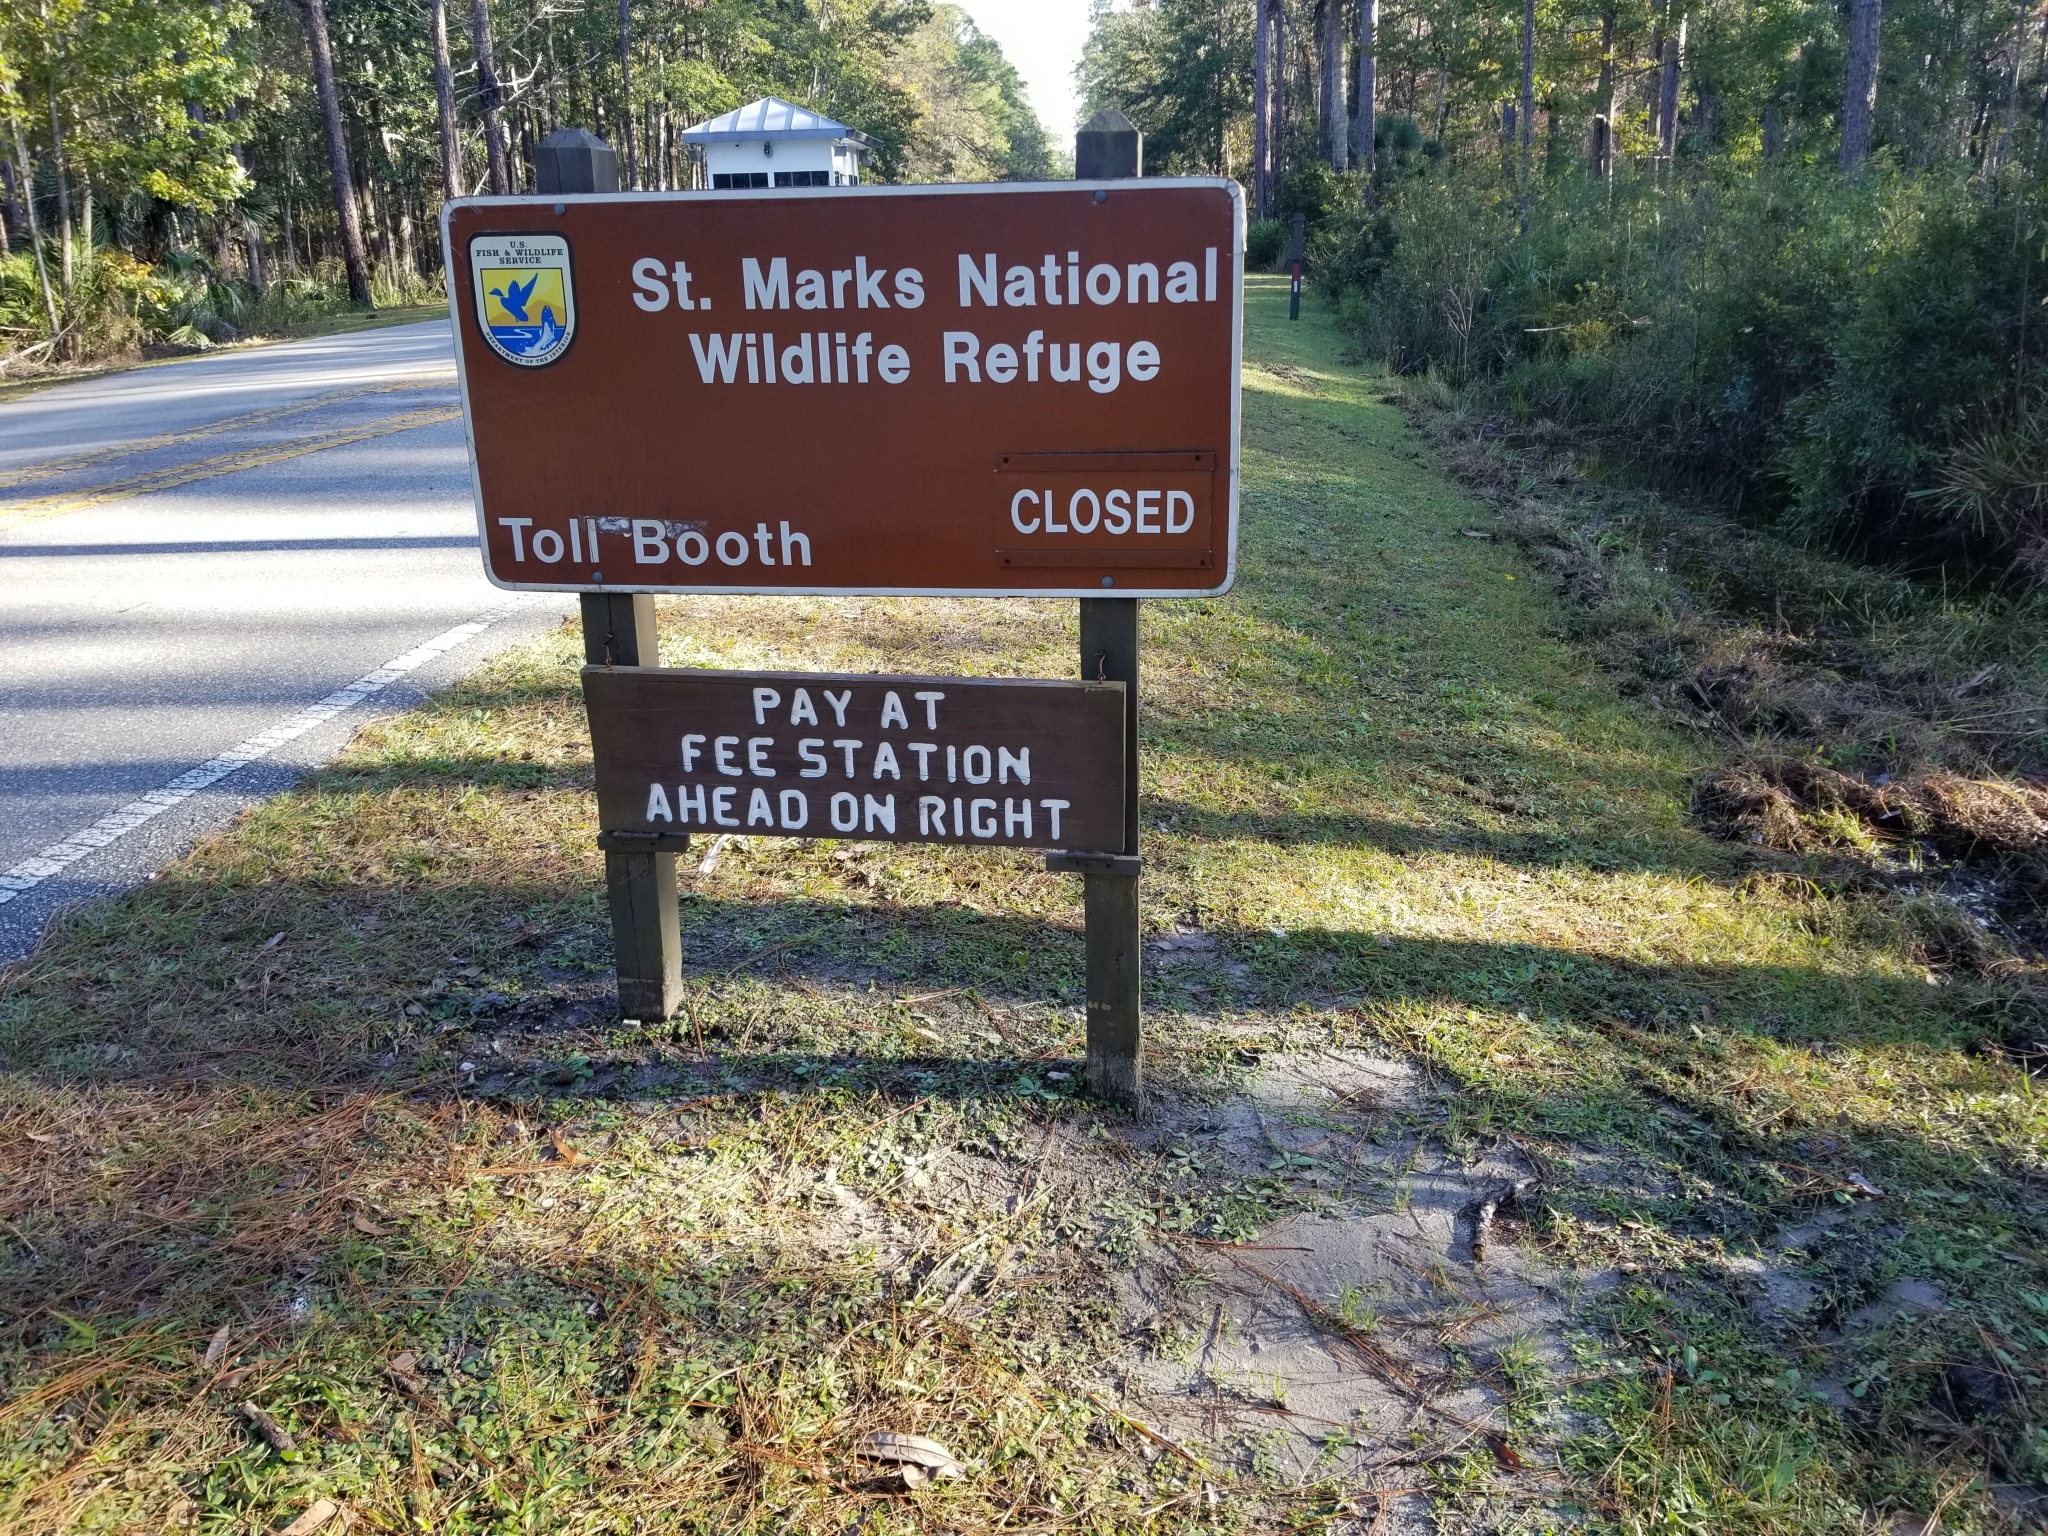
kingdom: Plantae
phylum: Tracheophyta
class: Magnoliopsida
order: Asterales
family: Asteraceae
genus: Erigeron
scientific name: Erigeron quercifolius
